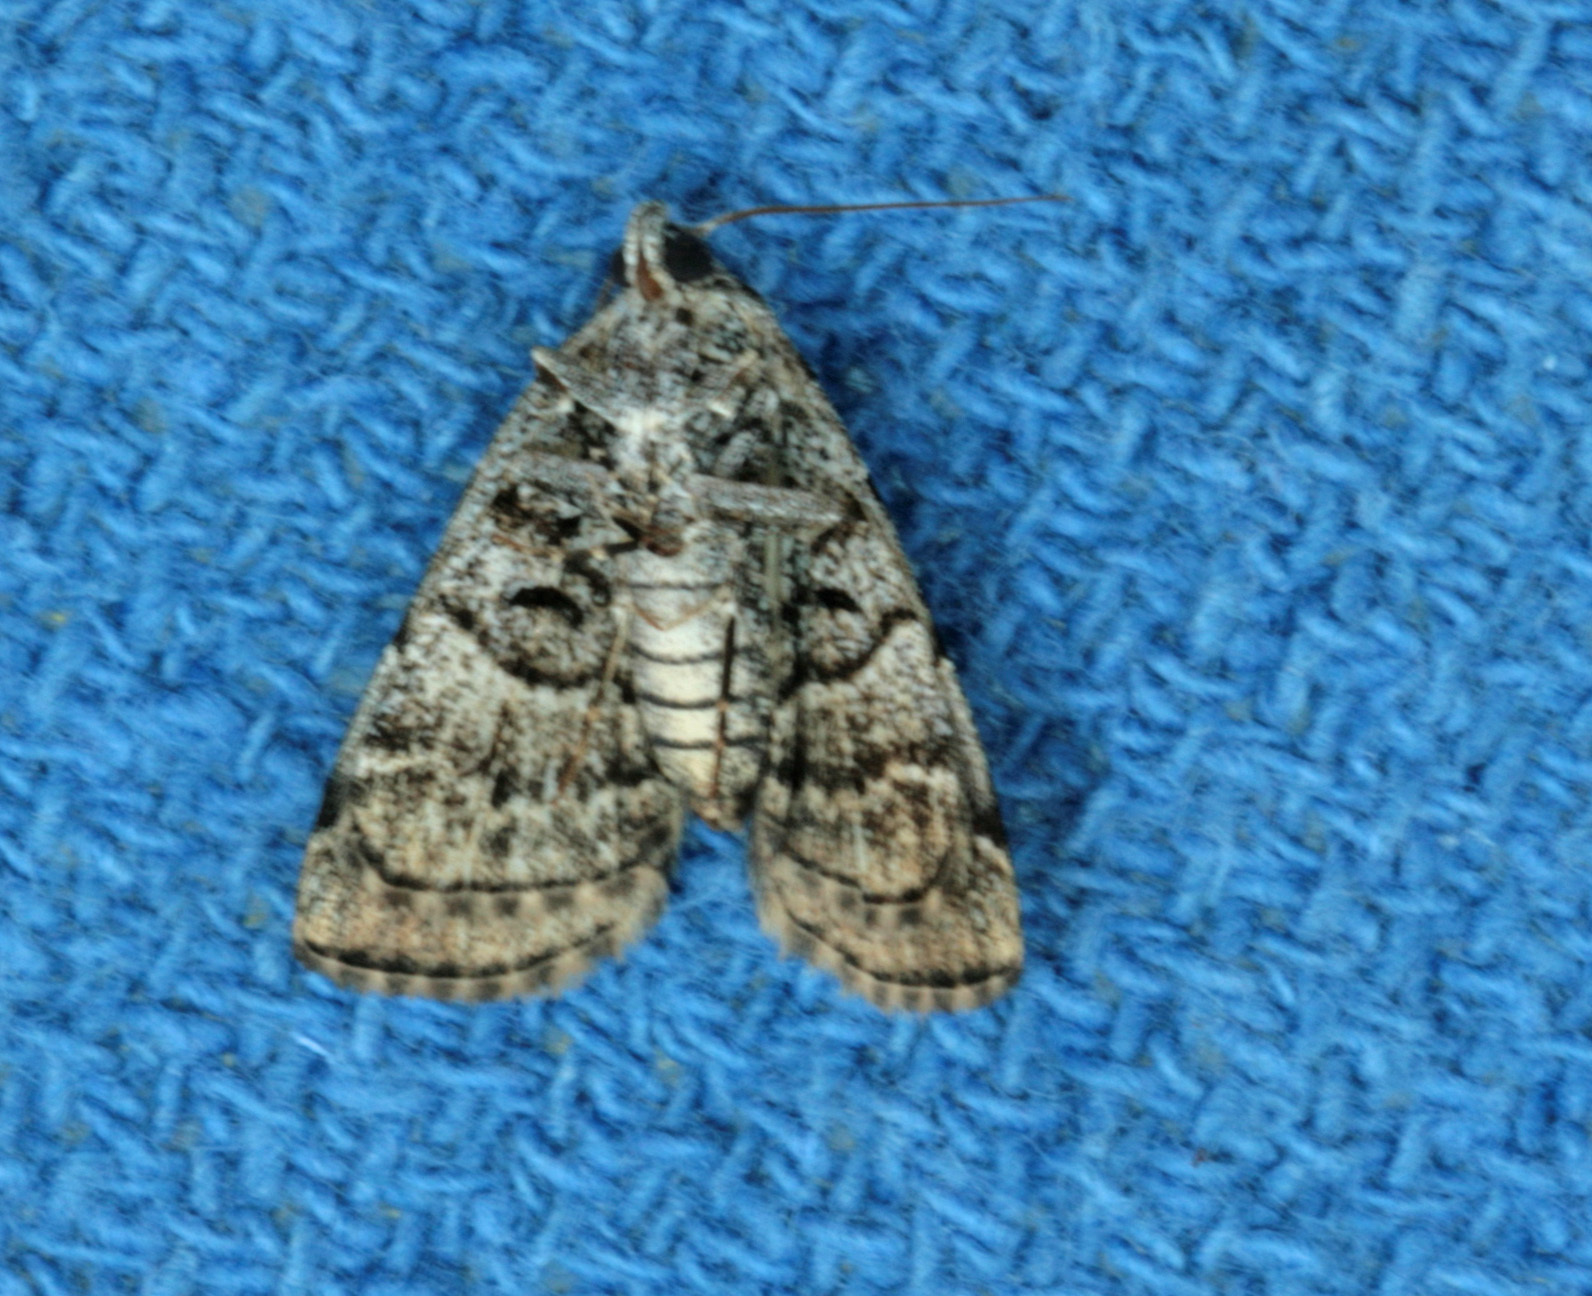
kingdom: Animalia
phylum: Arthropoda
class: Insecta
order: Lepidoptera
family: Erebidae
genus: Idia
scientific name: Idia americalis
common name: American idia moth
